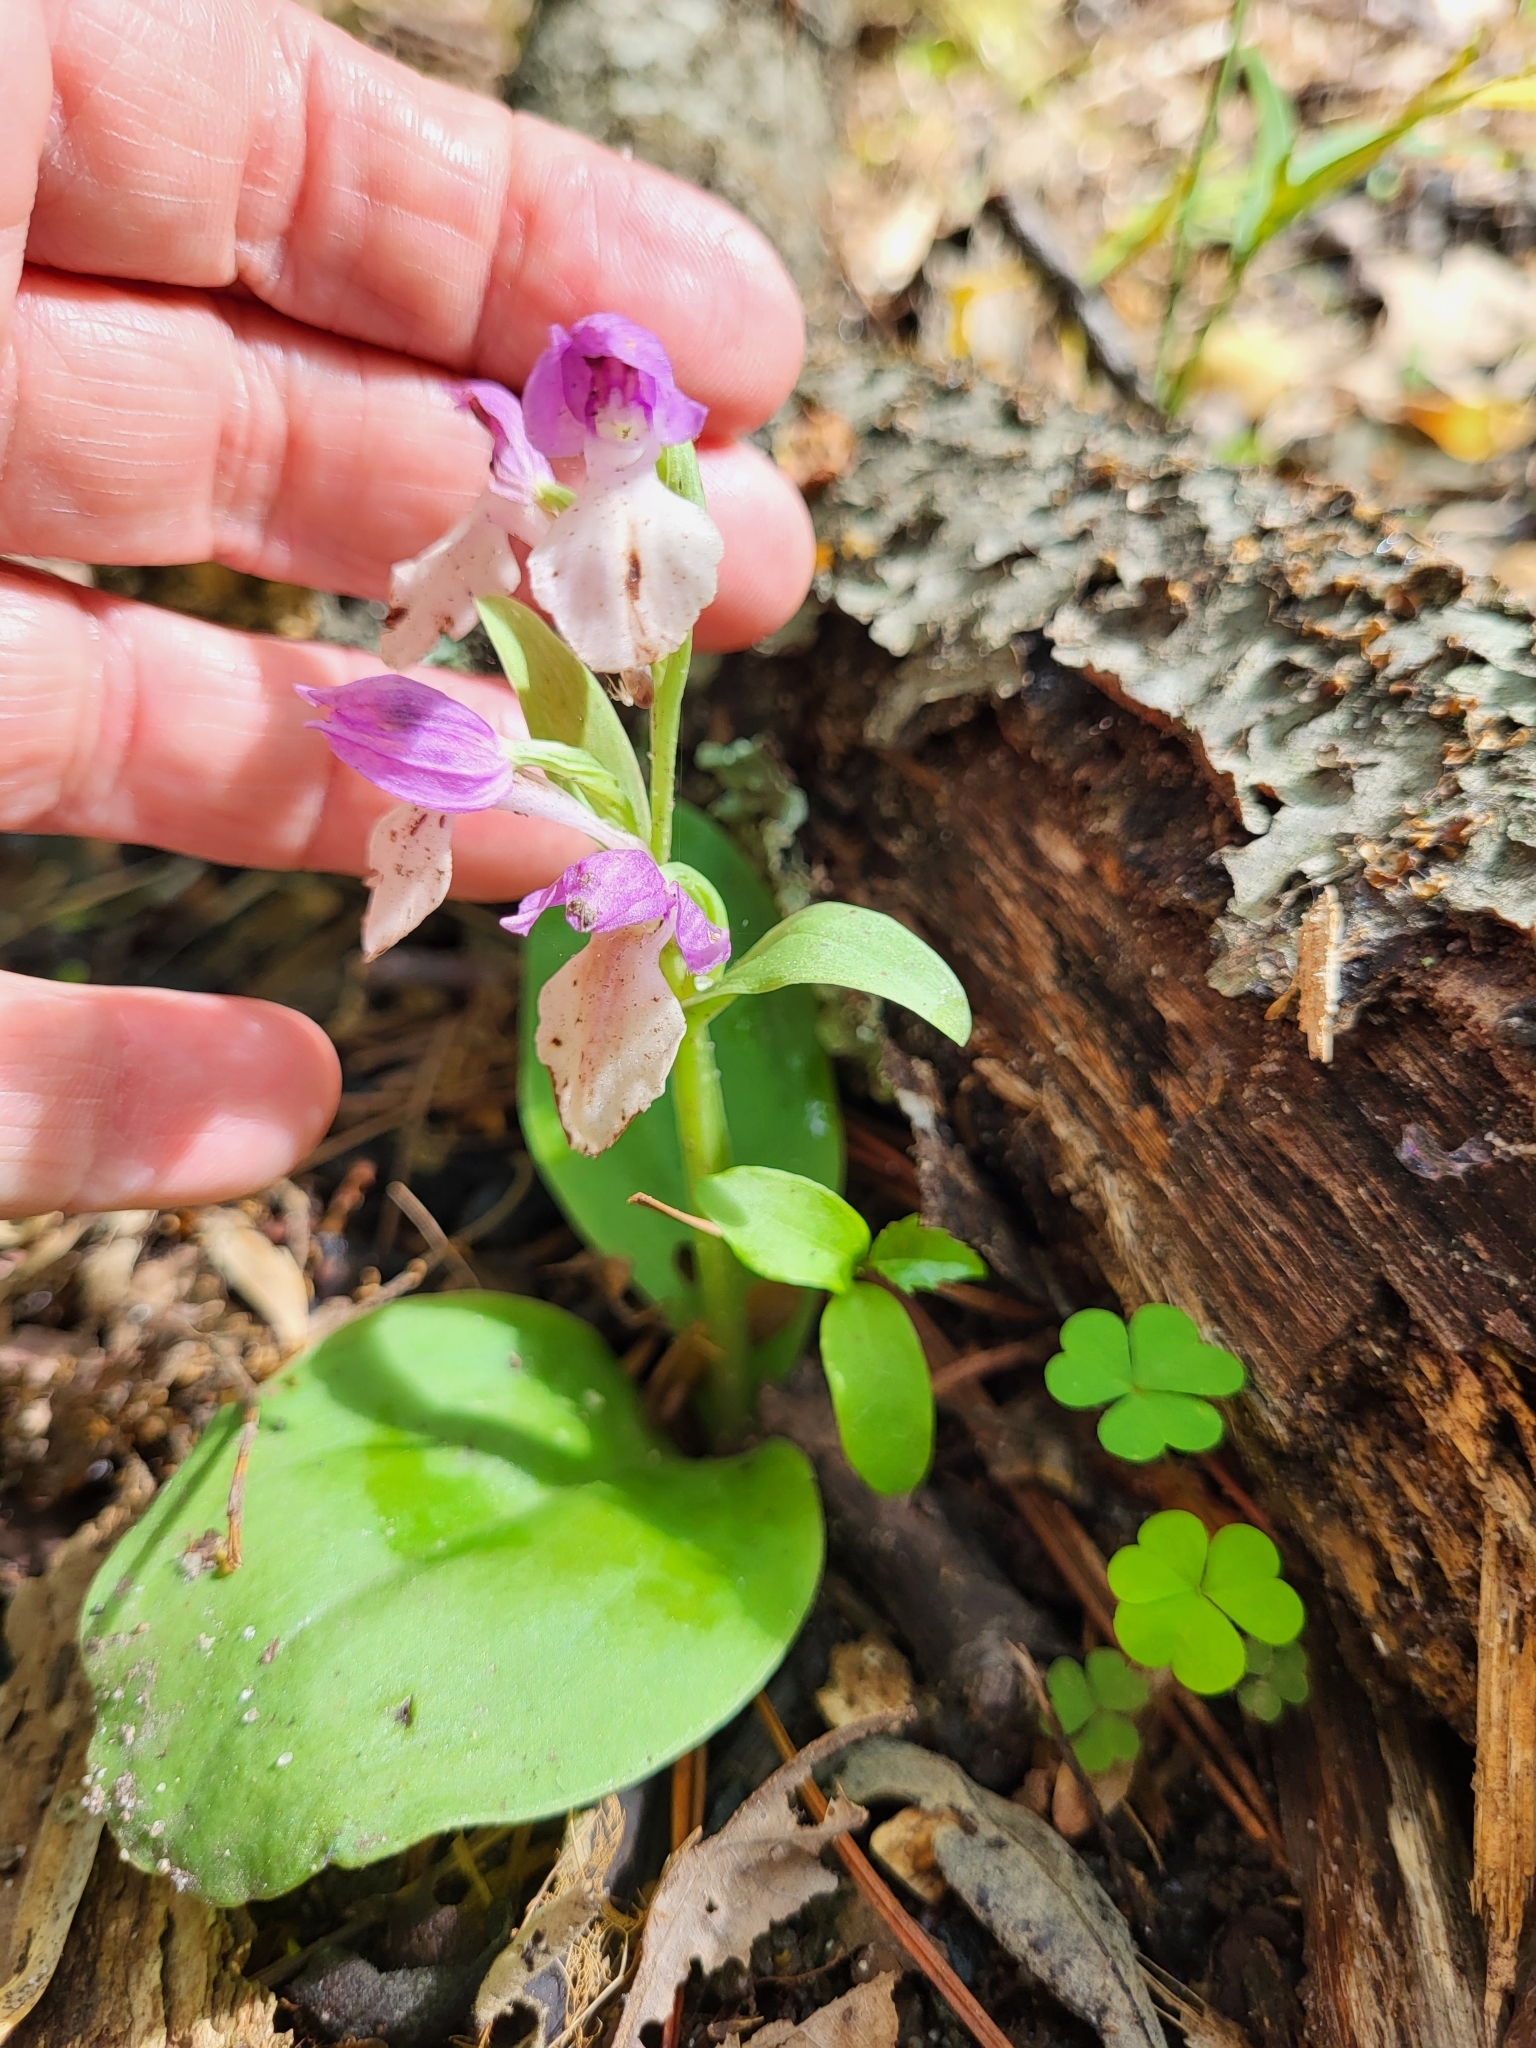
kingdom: Plantae
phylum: Tracheophyta
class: Liliopsida
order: Asparagales
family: Orchidaceae
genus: Galearis
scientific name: Galearis spectabilis
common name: Purple-hooded orchis
